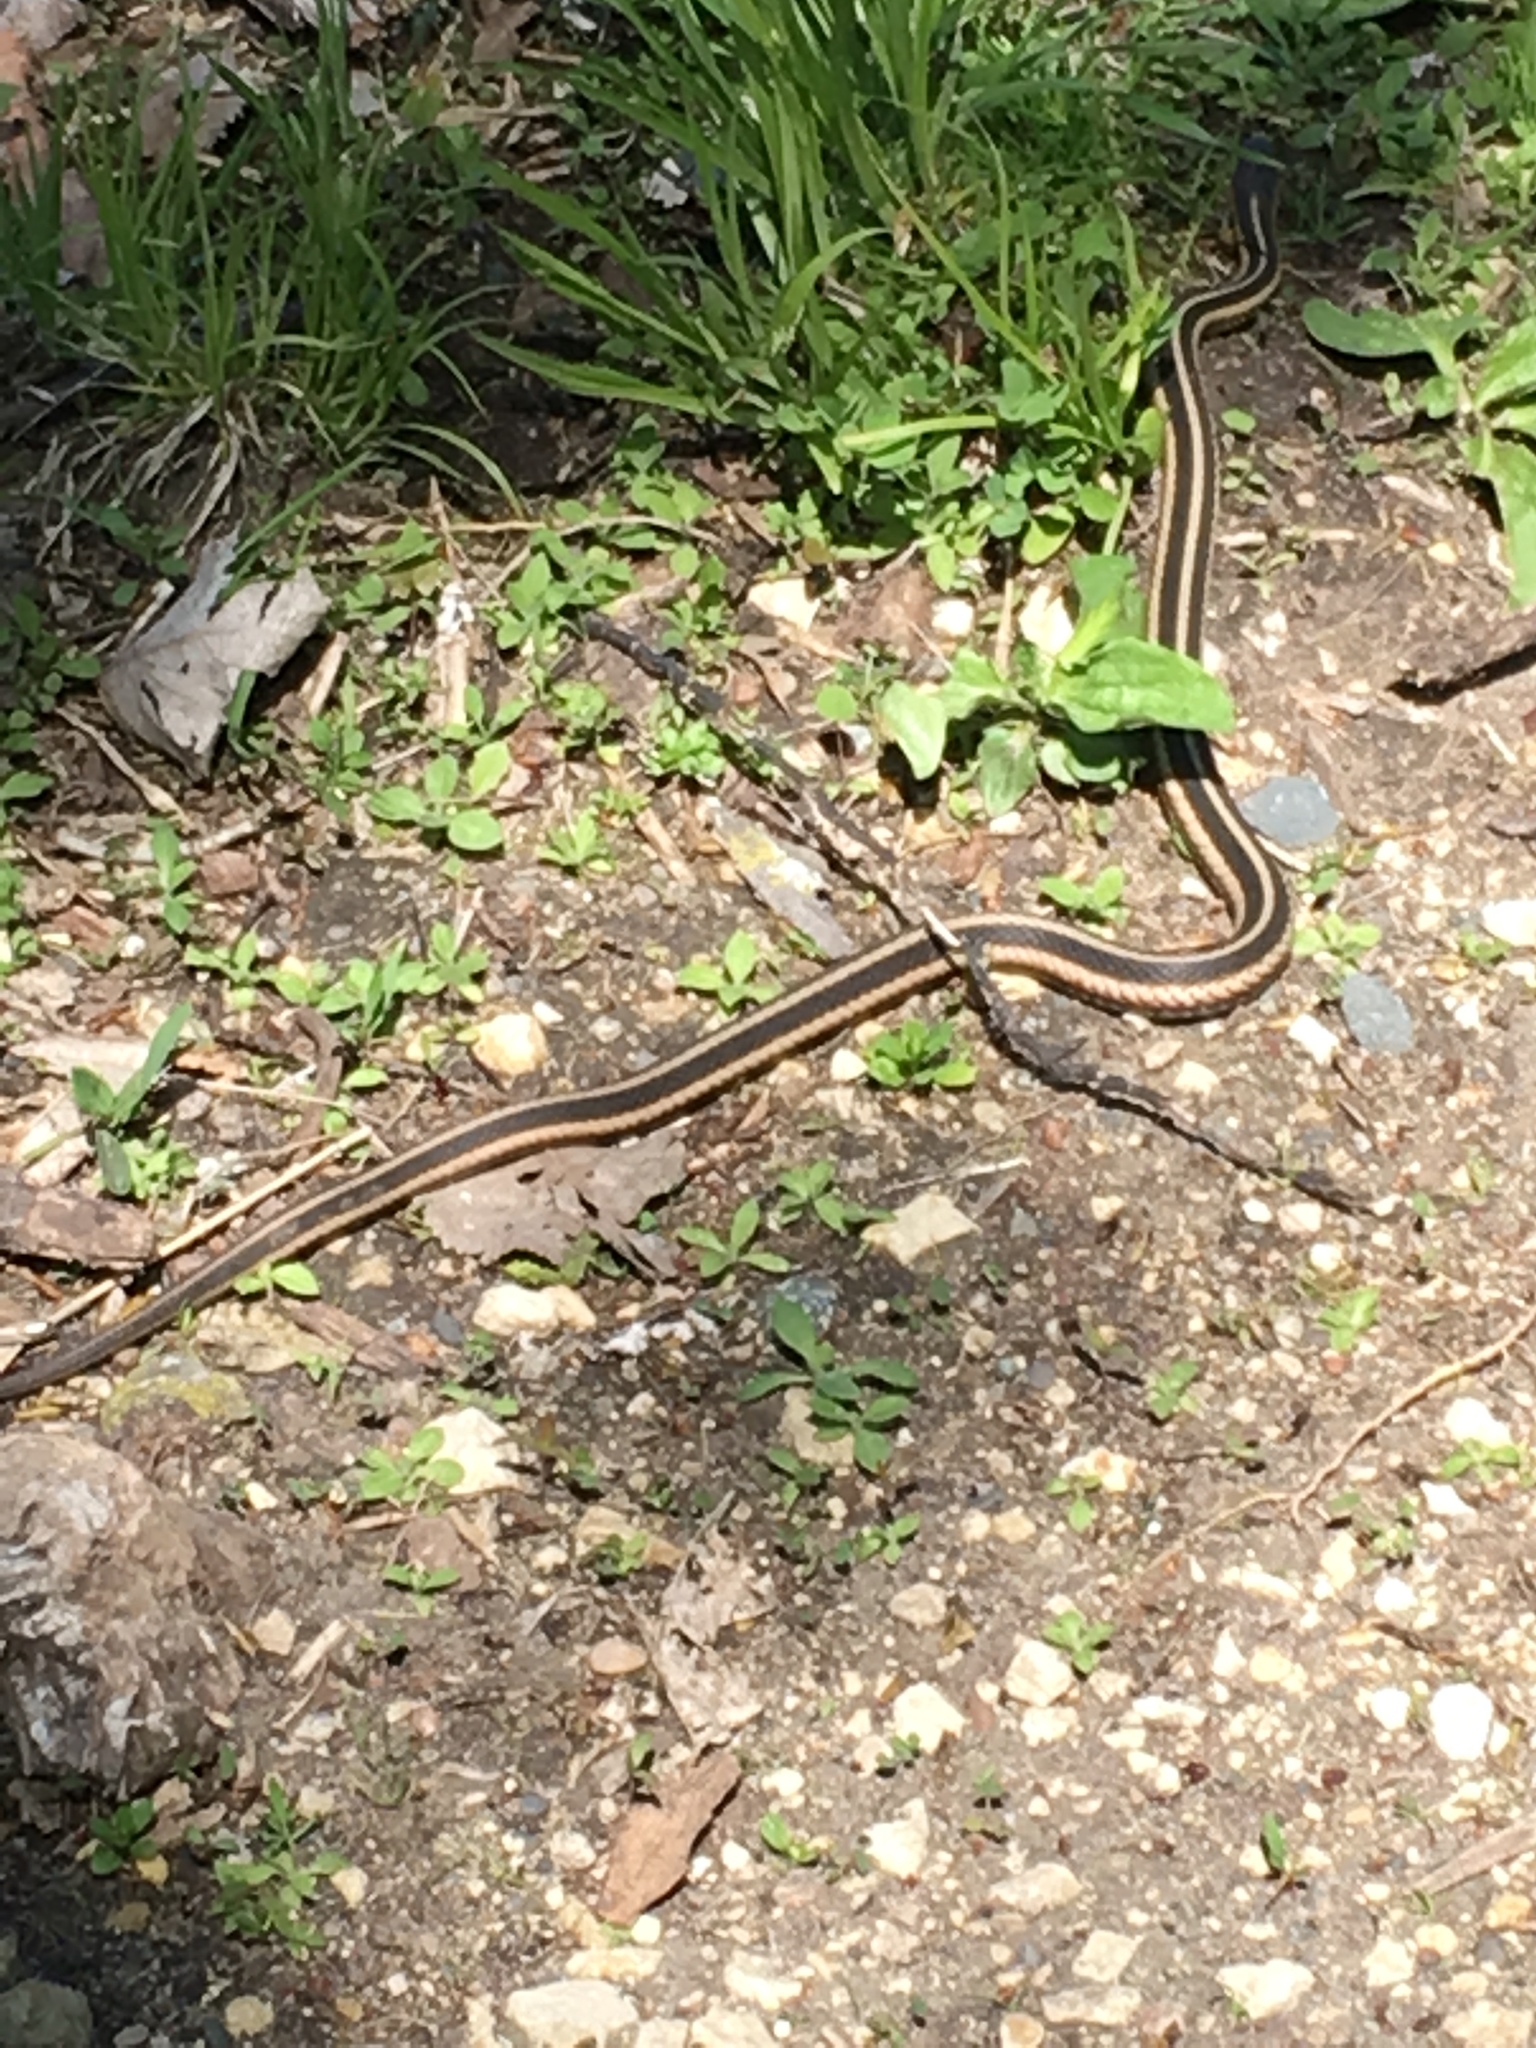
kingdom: Animalia
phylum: Chordata
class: Squamata
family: Colubridae
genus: Thamnophis
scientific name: Thamnophis sirtalis
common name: Common garter snake
